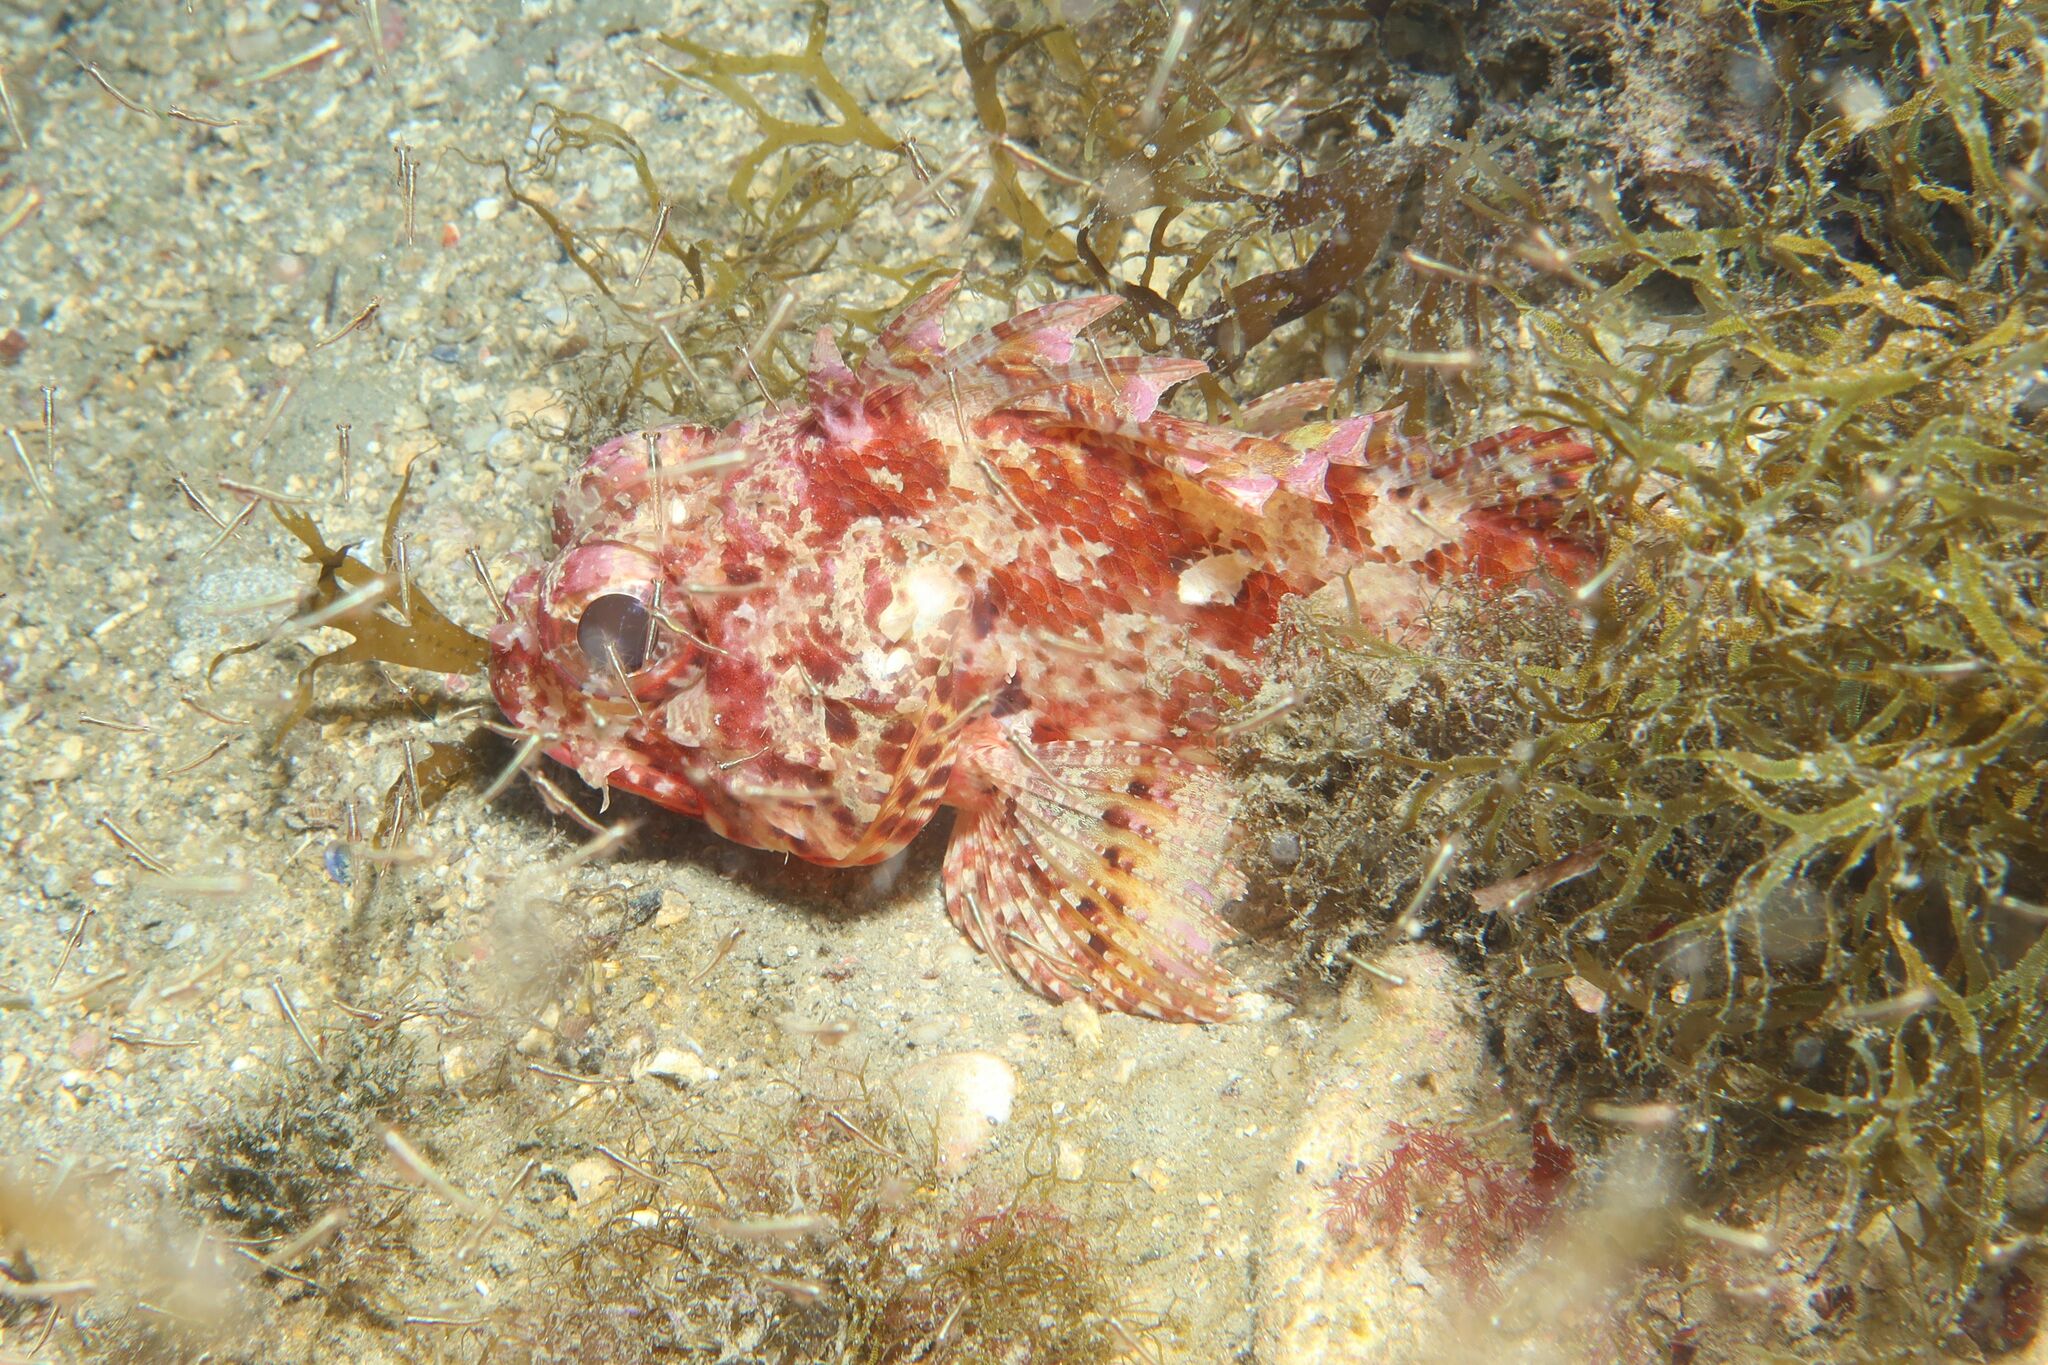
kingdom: Animalia
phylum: Chordata
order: Scorpaeniformes
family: Scorpaenidae
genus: Scorpaena
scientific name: Scorpaena notata
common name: Small red scorpionfish
